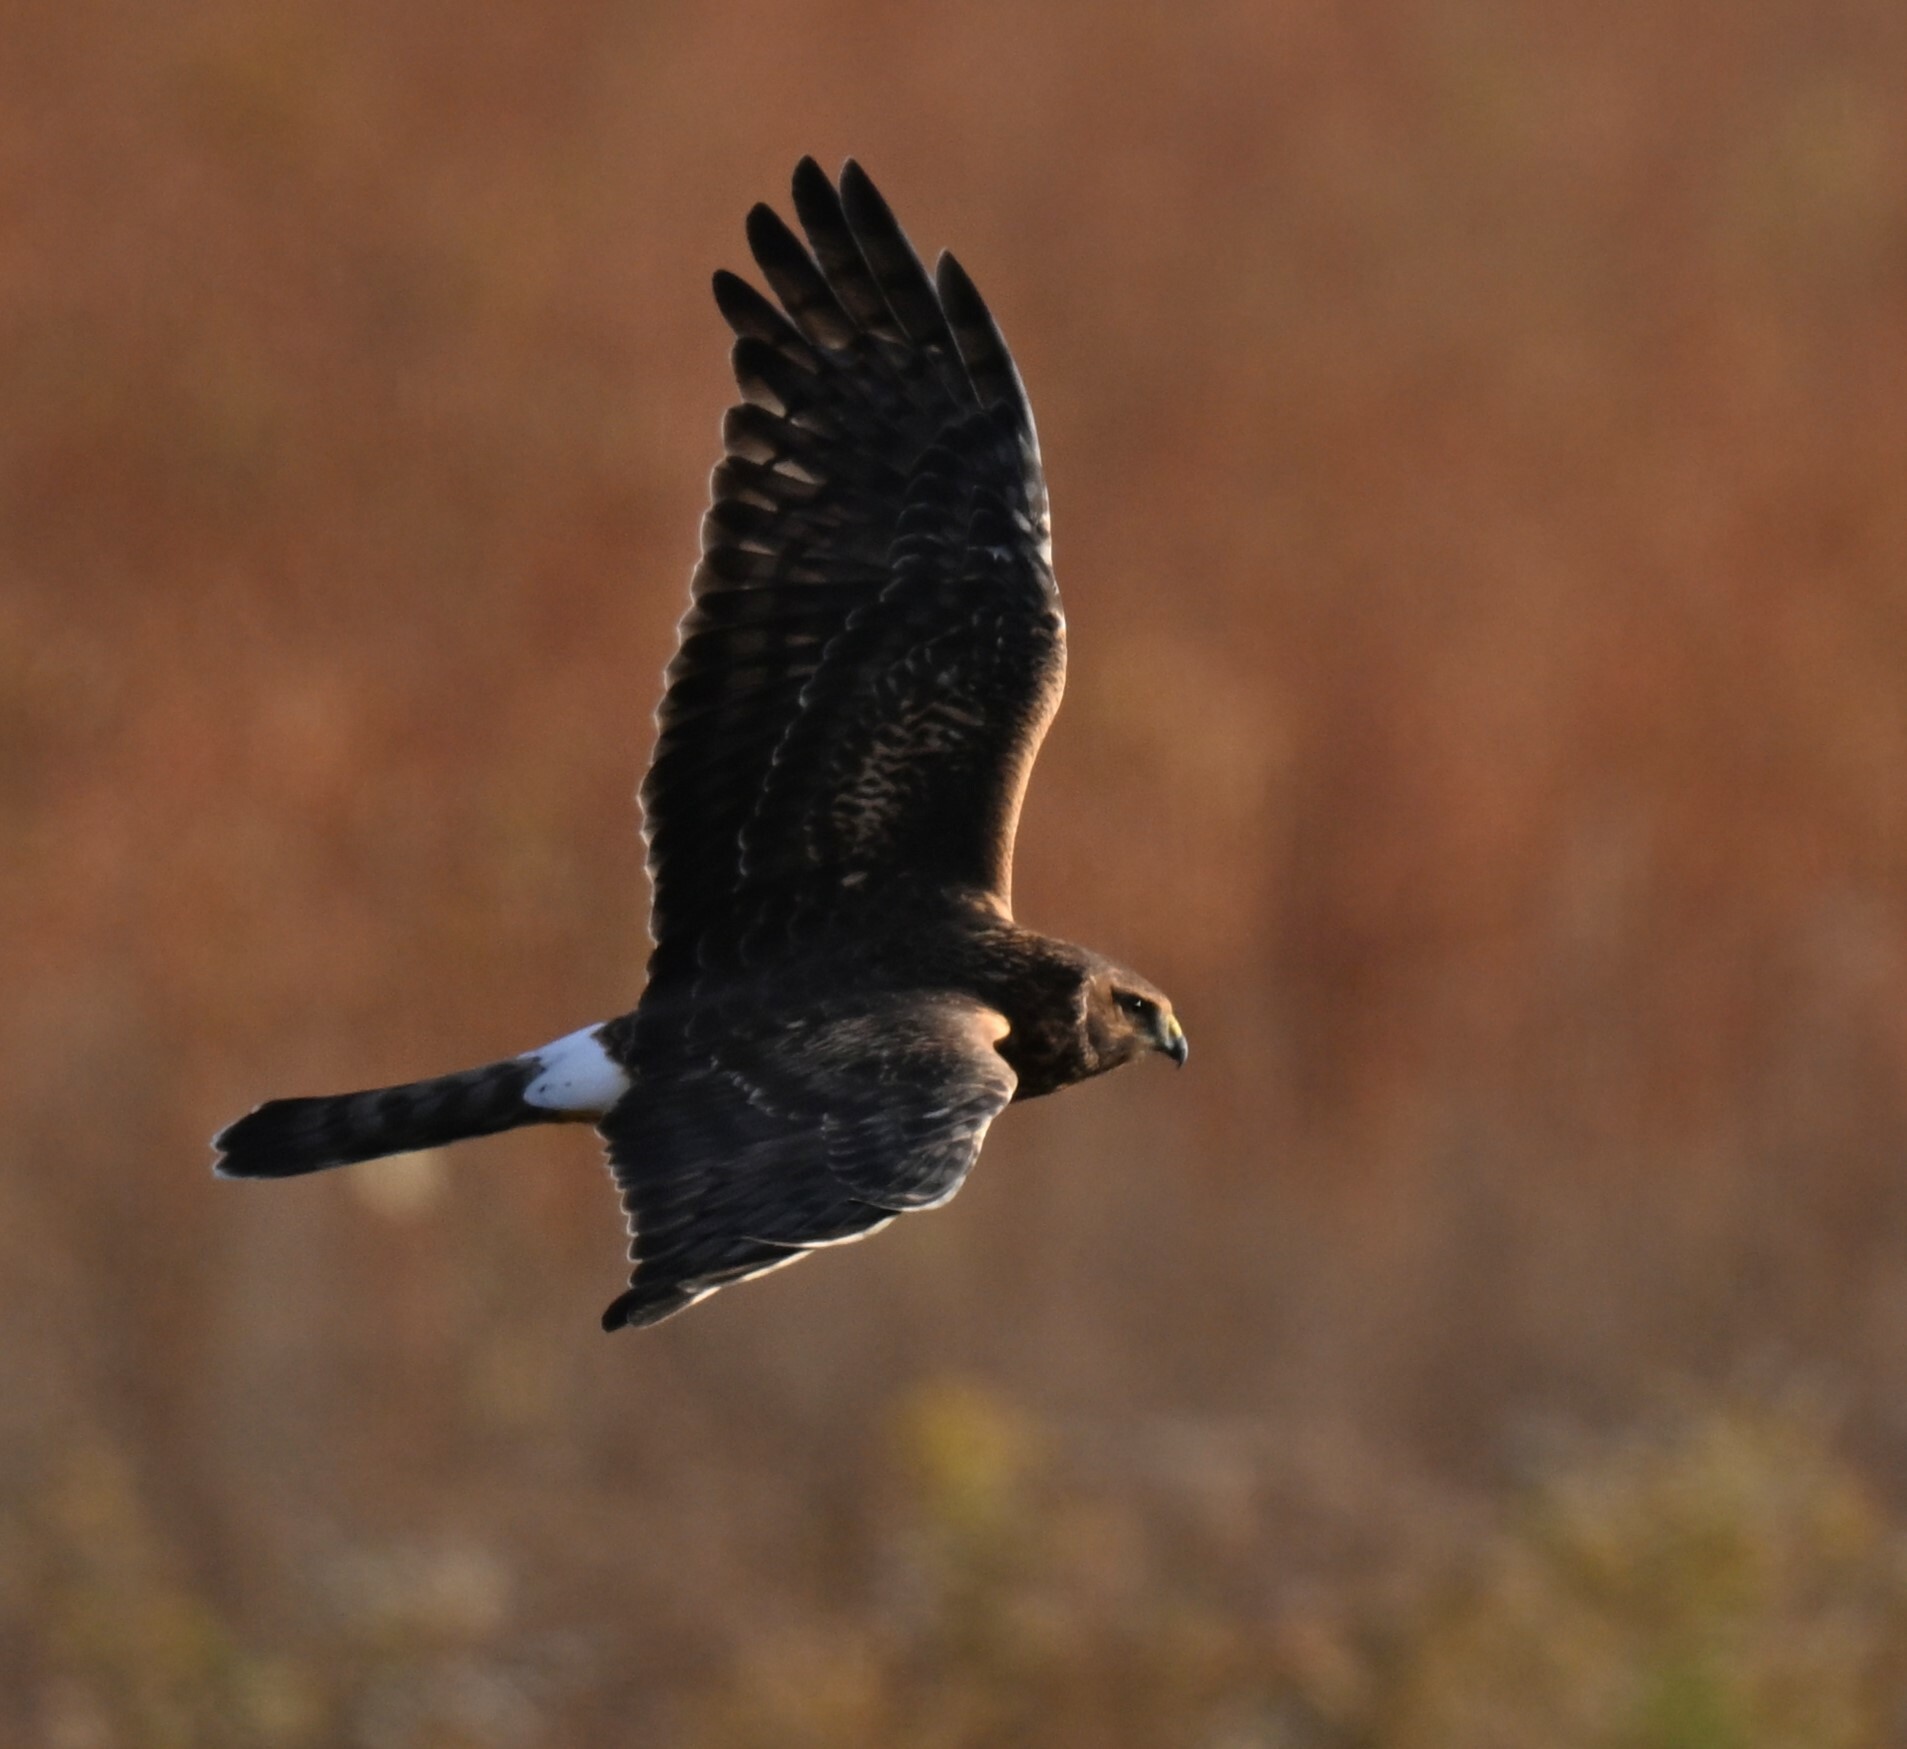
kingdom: Animalia
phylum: Chordata
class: Aves
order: Accipitriformes
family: Accipitridae
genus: Circus
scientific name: Circus cyaneus
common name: Hen harrier
